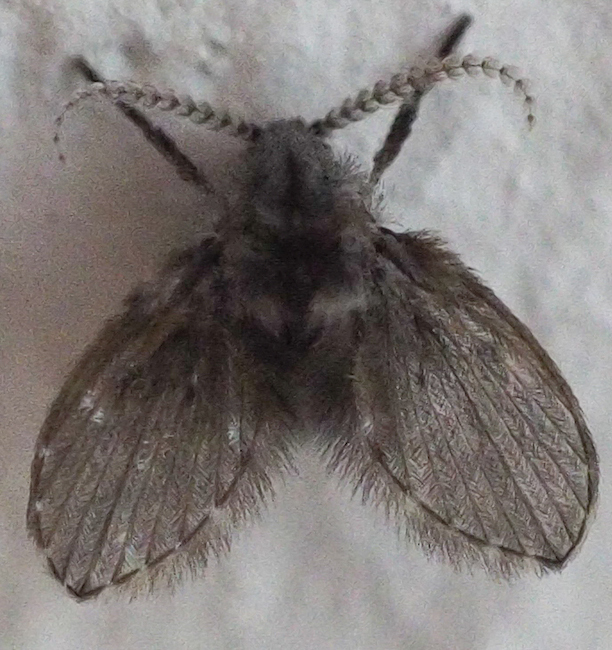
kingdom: Animalia
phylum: Arthropoda
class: Insecta
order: Diptera
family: Psychodidae
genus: Clogmia
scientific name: Clogmia albipunctatus
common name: White-spotted moth fly
